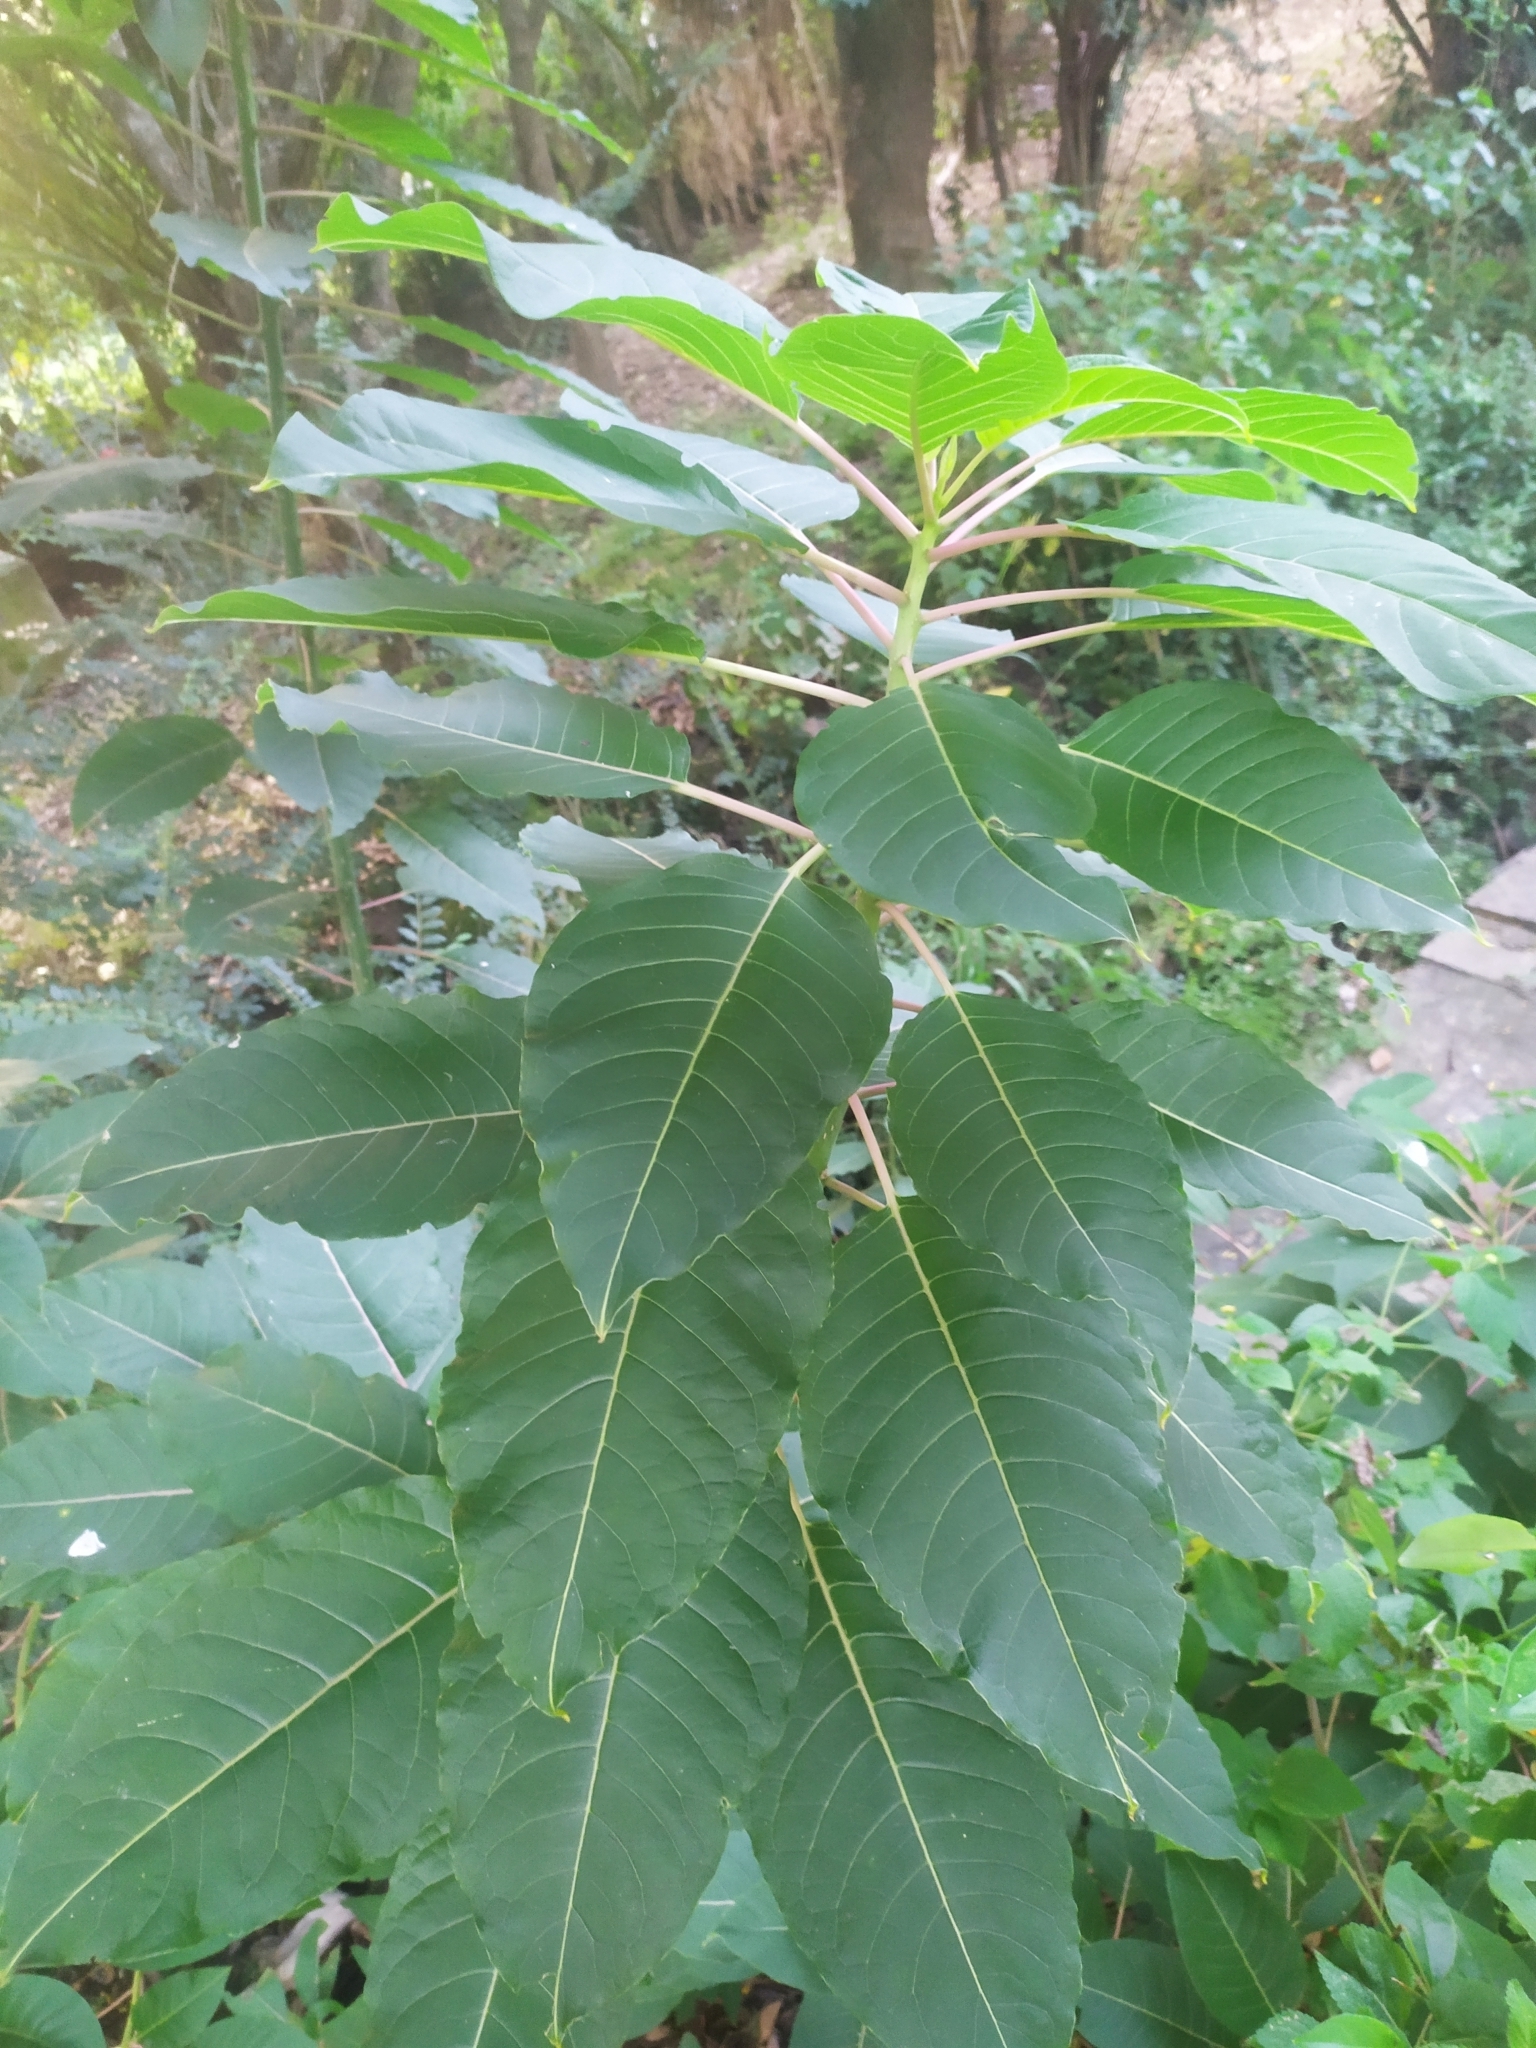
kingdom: Plantae
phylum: Tracheophyta
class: Magnoliopsida
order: Caryophyllales
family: Phytolaccaceae
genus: Phytolacca
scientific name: Phytolacca dioica
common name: Pokeweed
